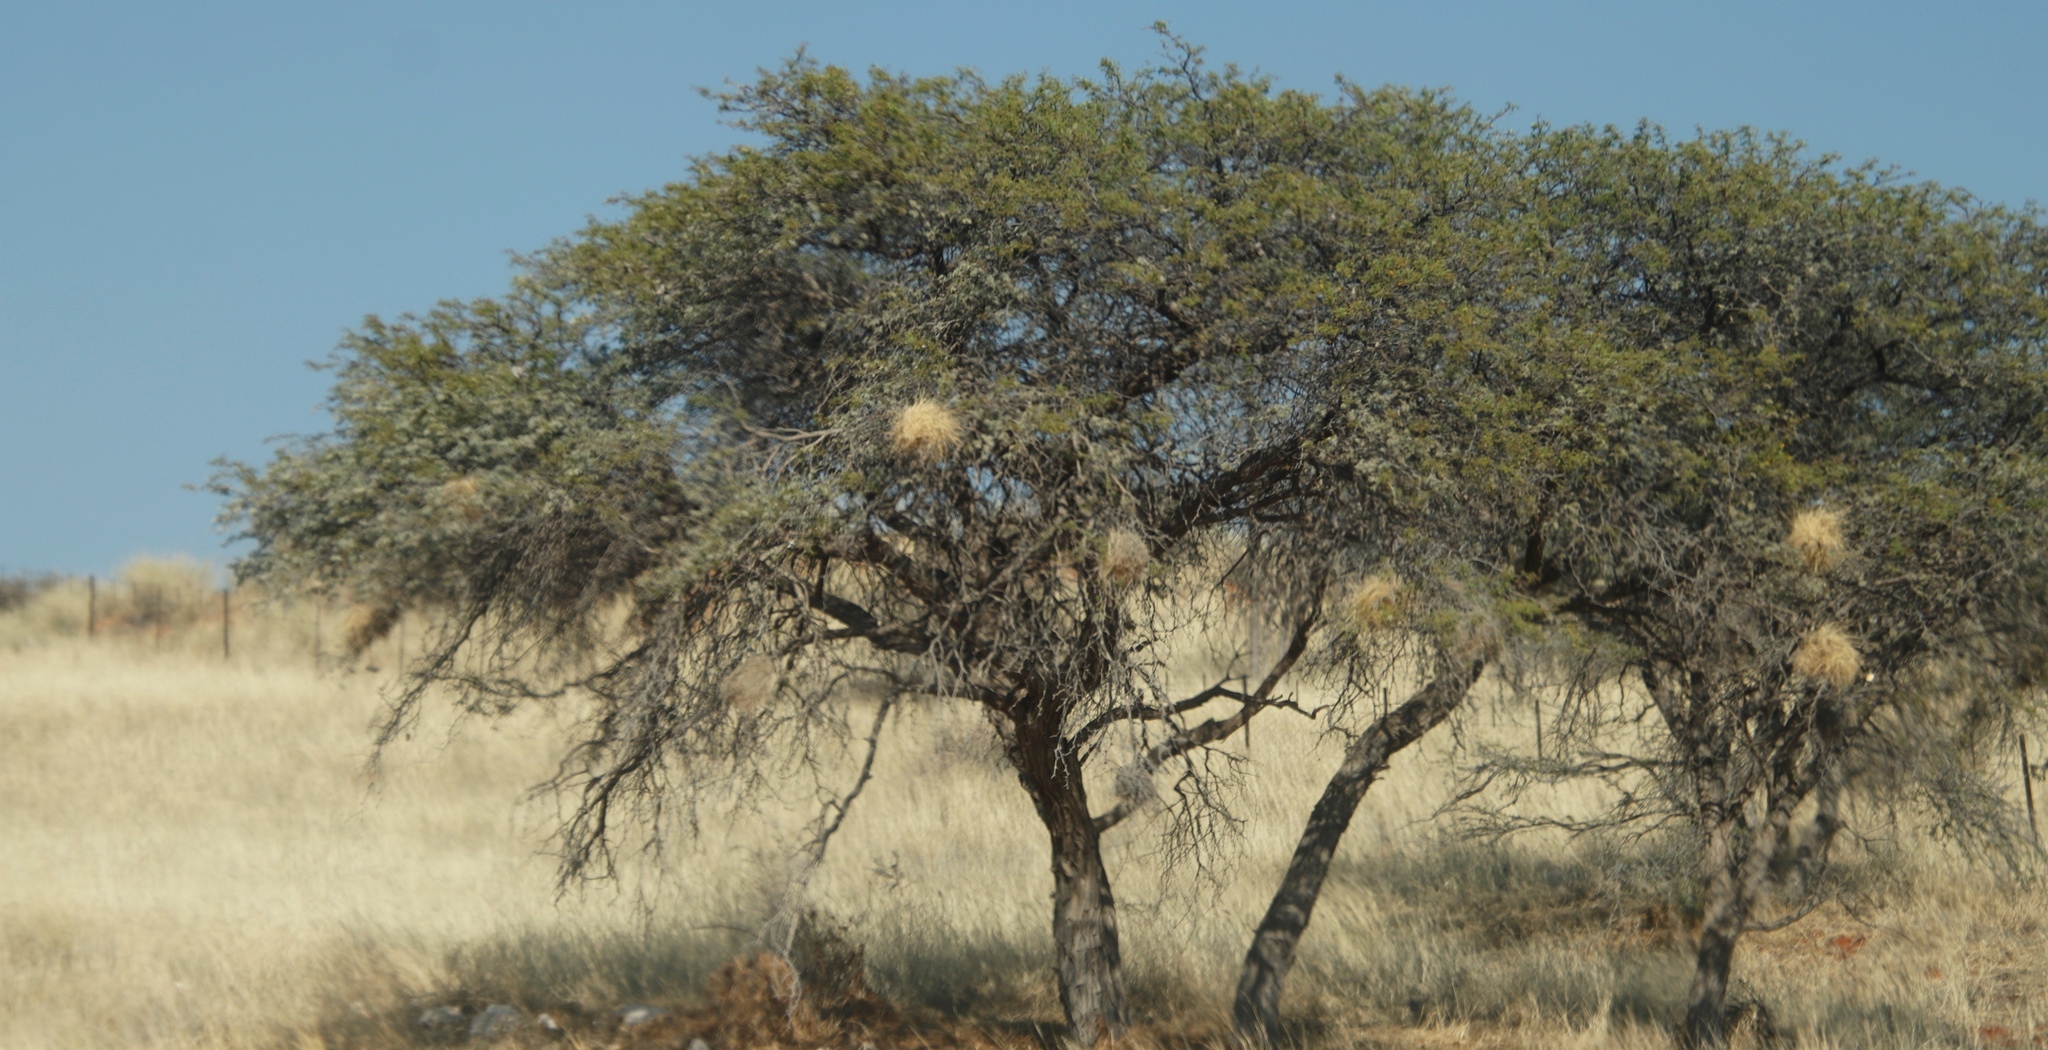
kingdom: Animalia
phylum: Chordata
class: Aves
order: Passeriformes
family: Passeridae
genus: Plocepasser
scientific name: Plocepasser mahali
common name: White-browed sparrow-weaver
